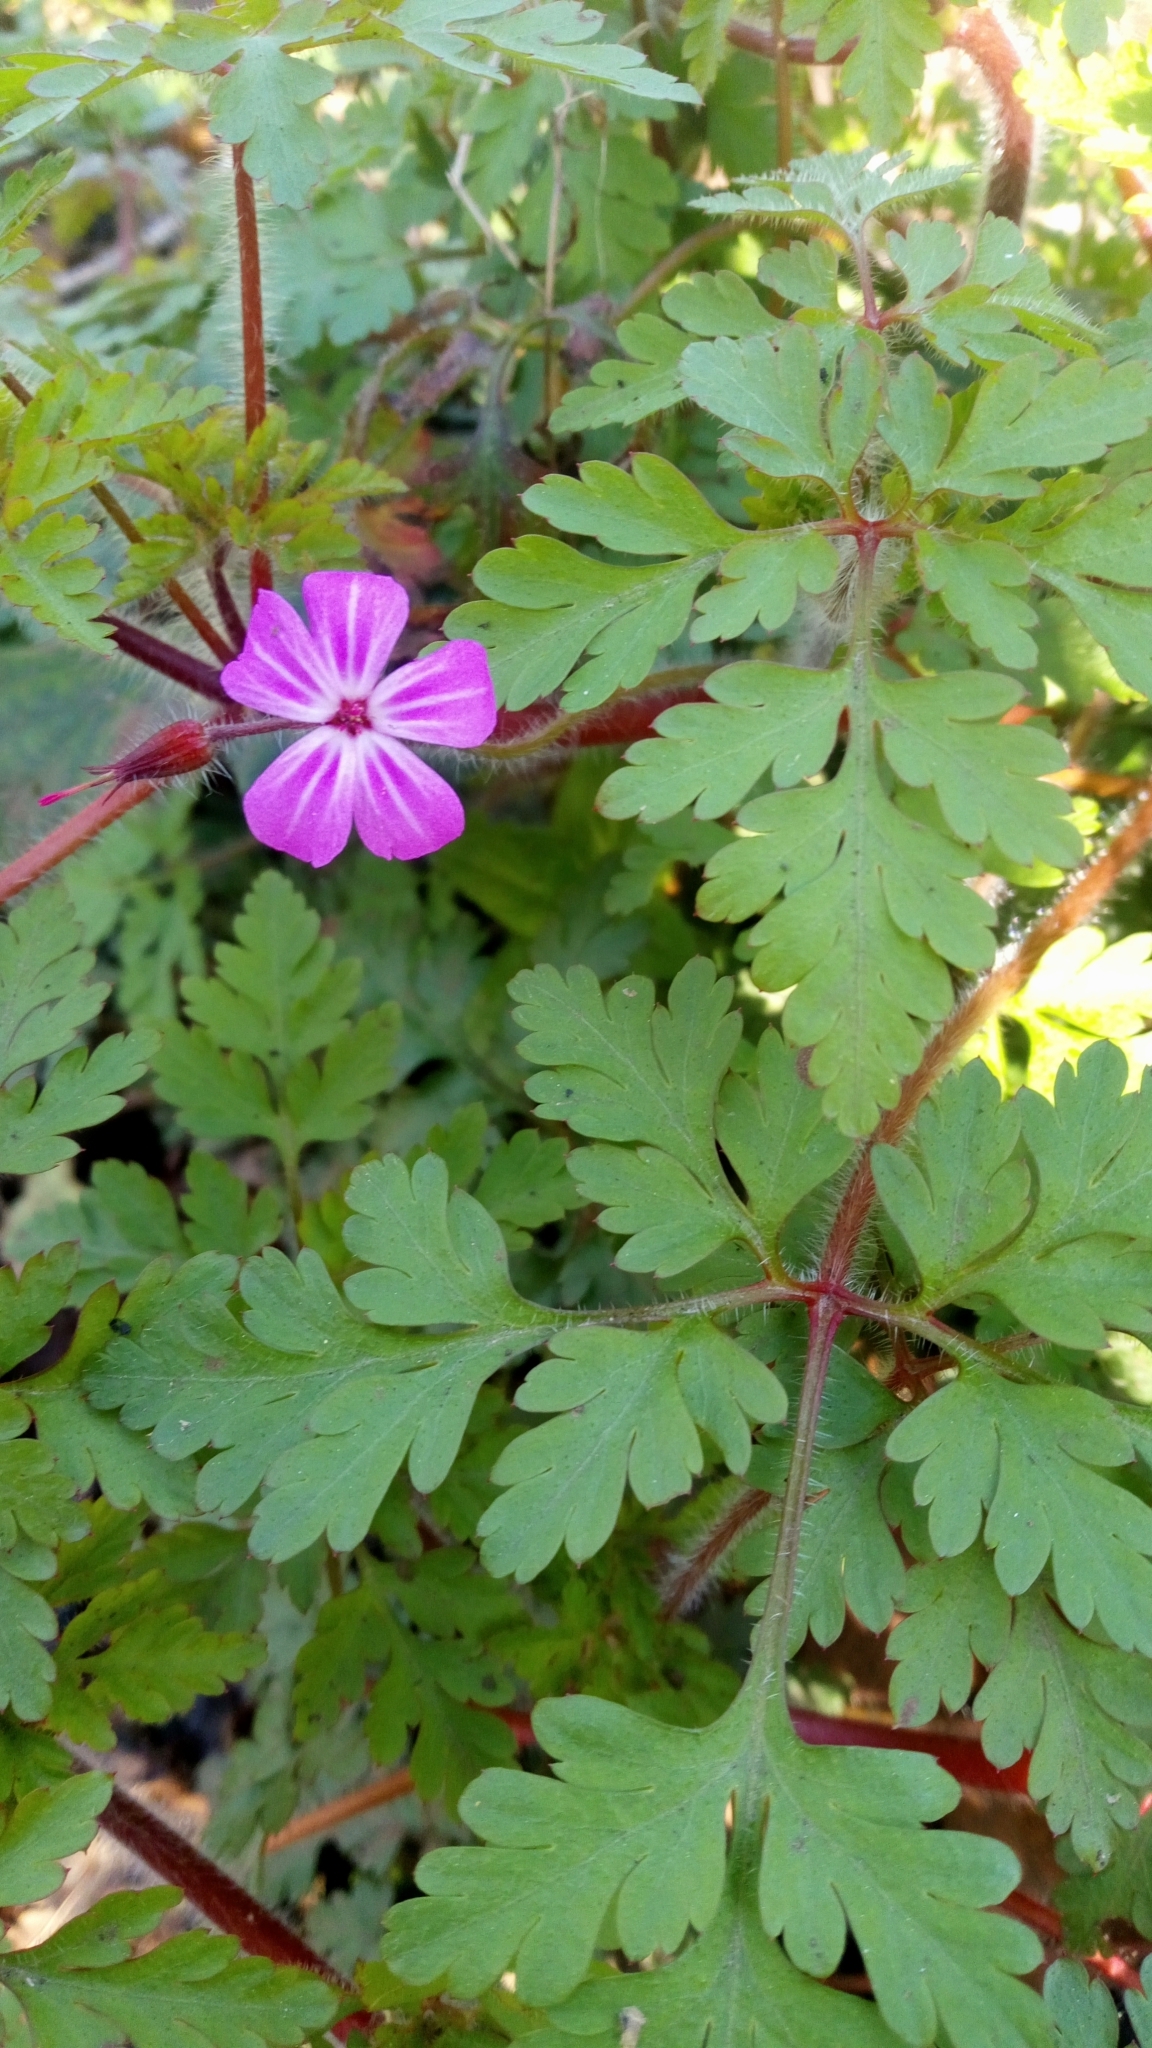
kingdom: Plantae
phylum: Tracheophyta
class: Magnoliopsida
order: Geraniales
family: Geraniaceae
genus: Geranium
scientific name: Geranium robertianum
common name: Herb-robert
